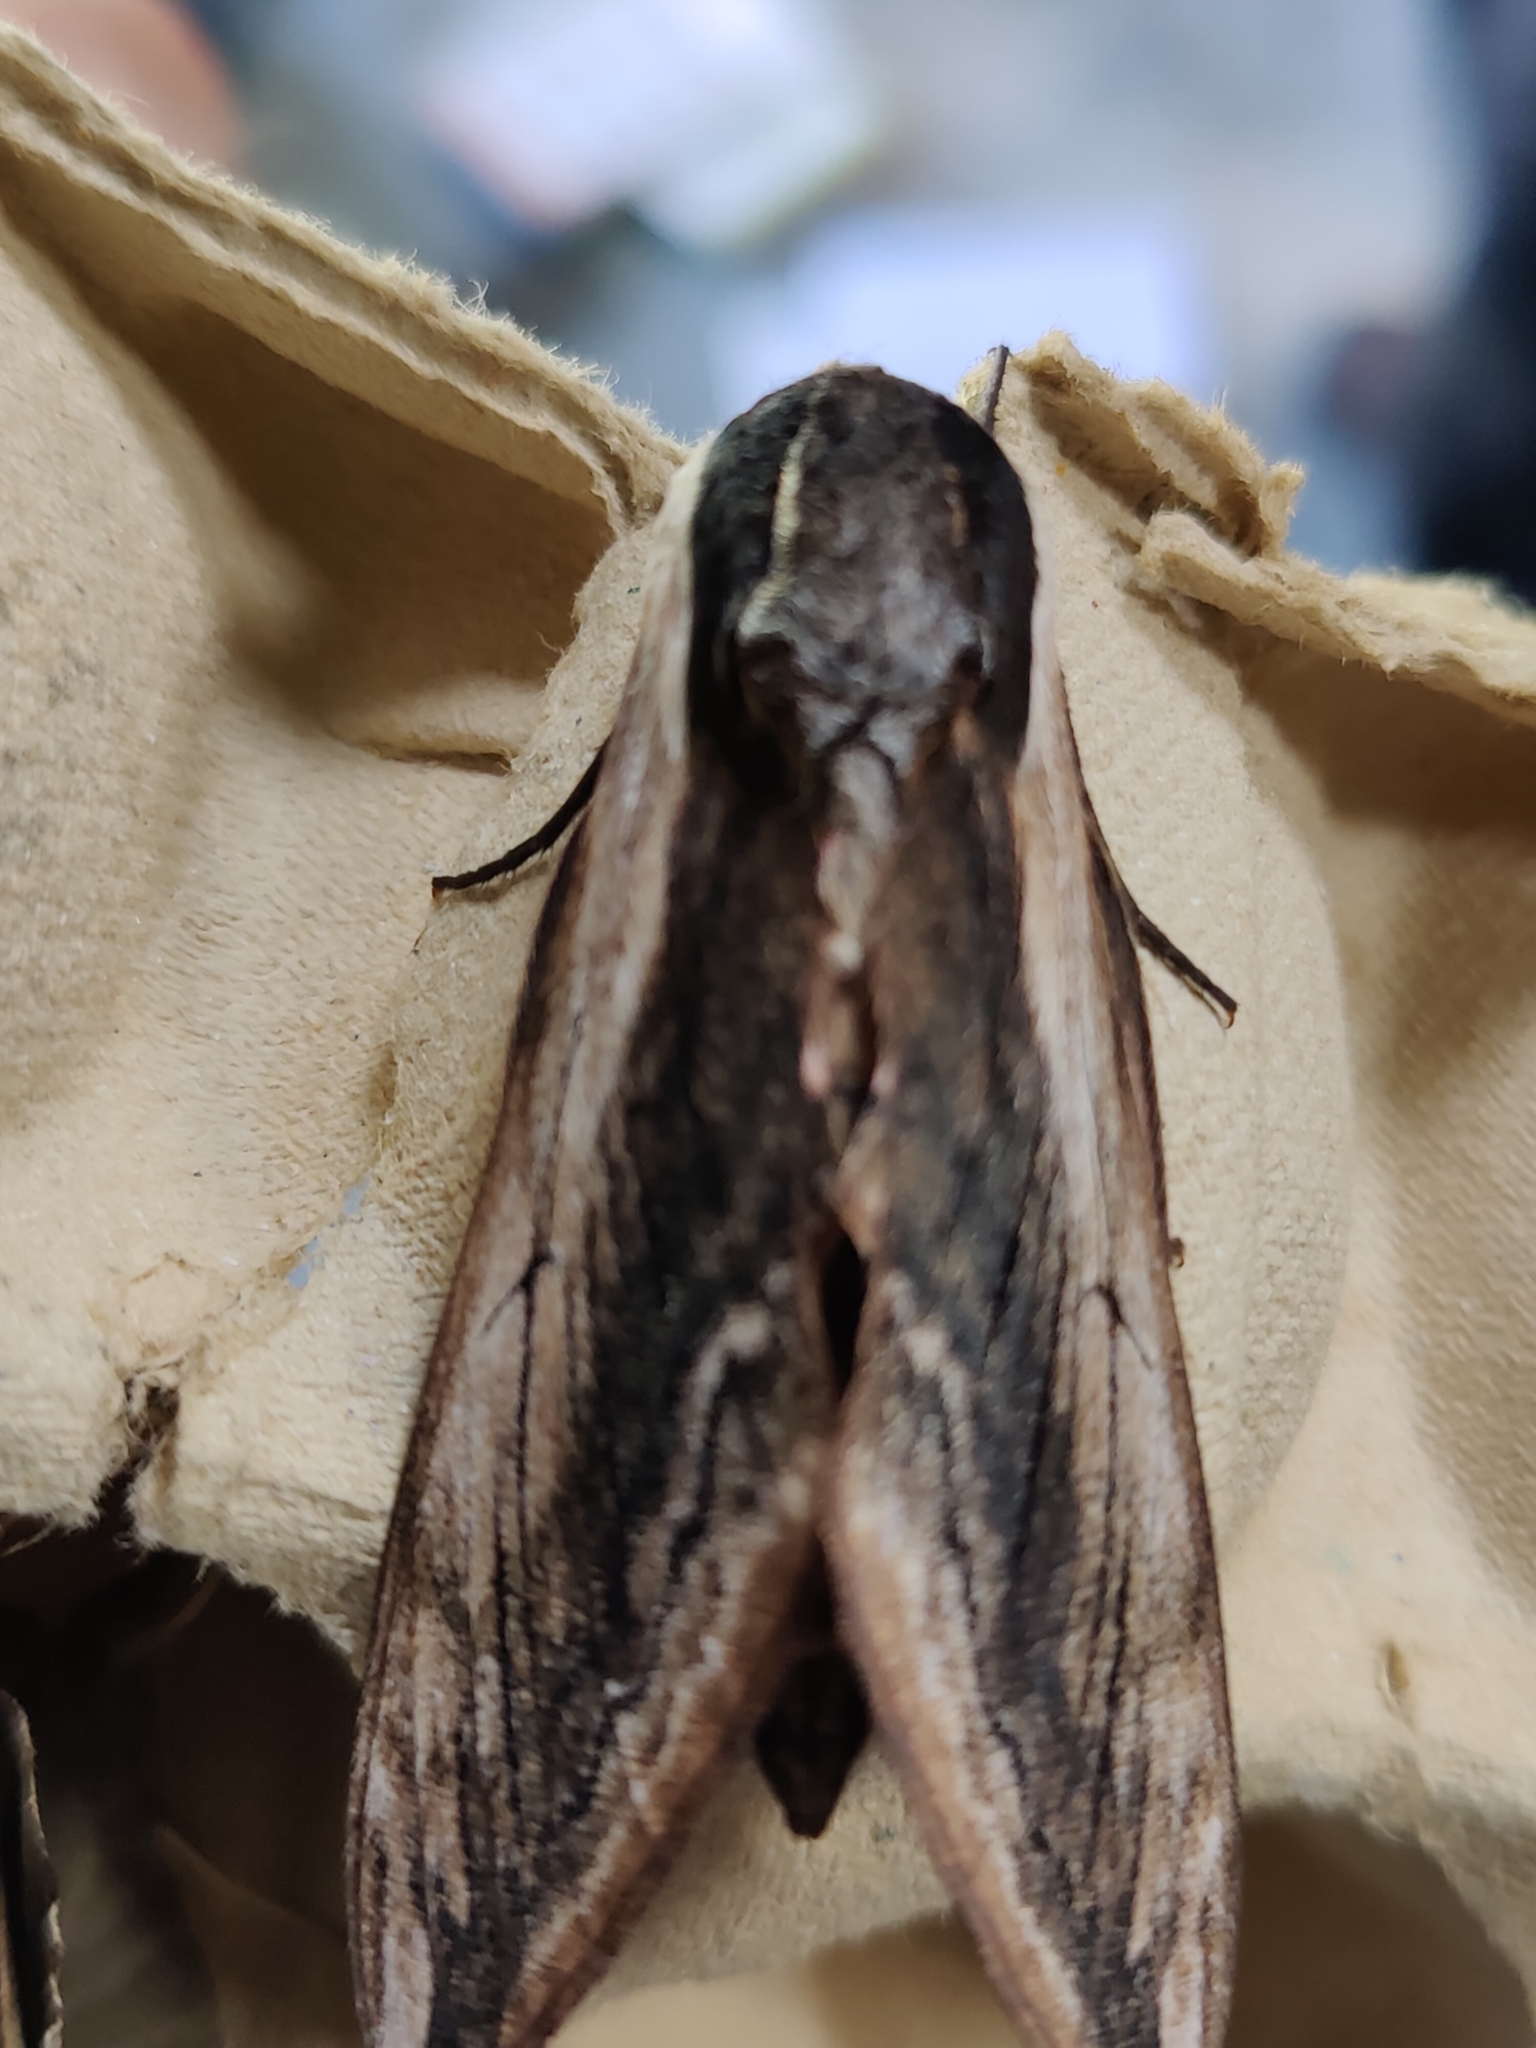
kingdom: Animalia
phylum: Arthropoda
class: Insecta
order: Lepidoptera
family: Sphingidae
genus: Sphinx
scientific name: Sphinx ligustri
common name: Privet hawk-moth
